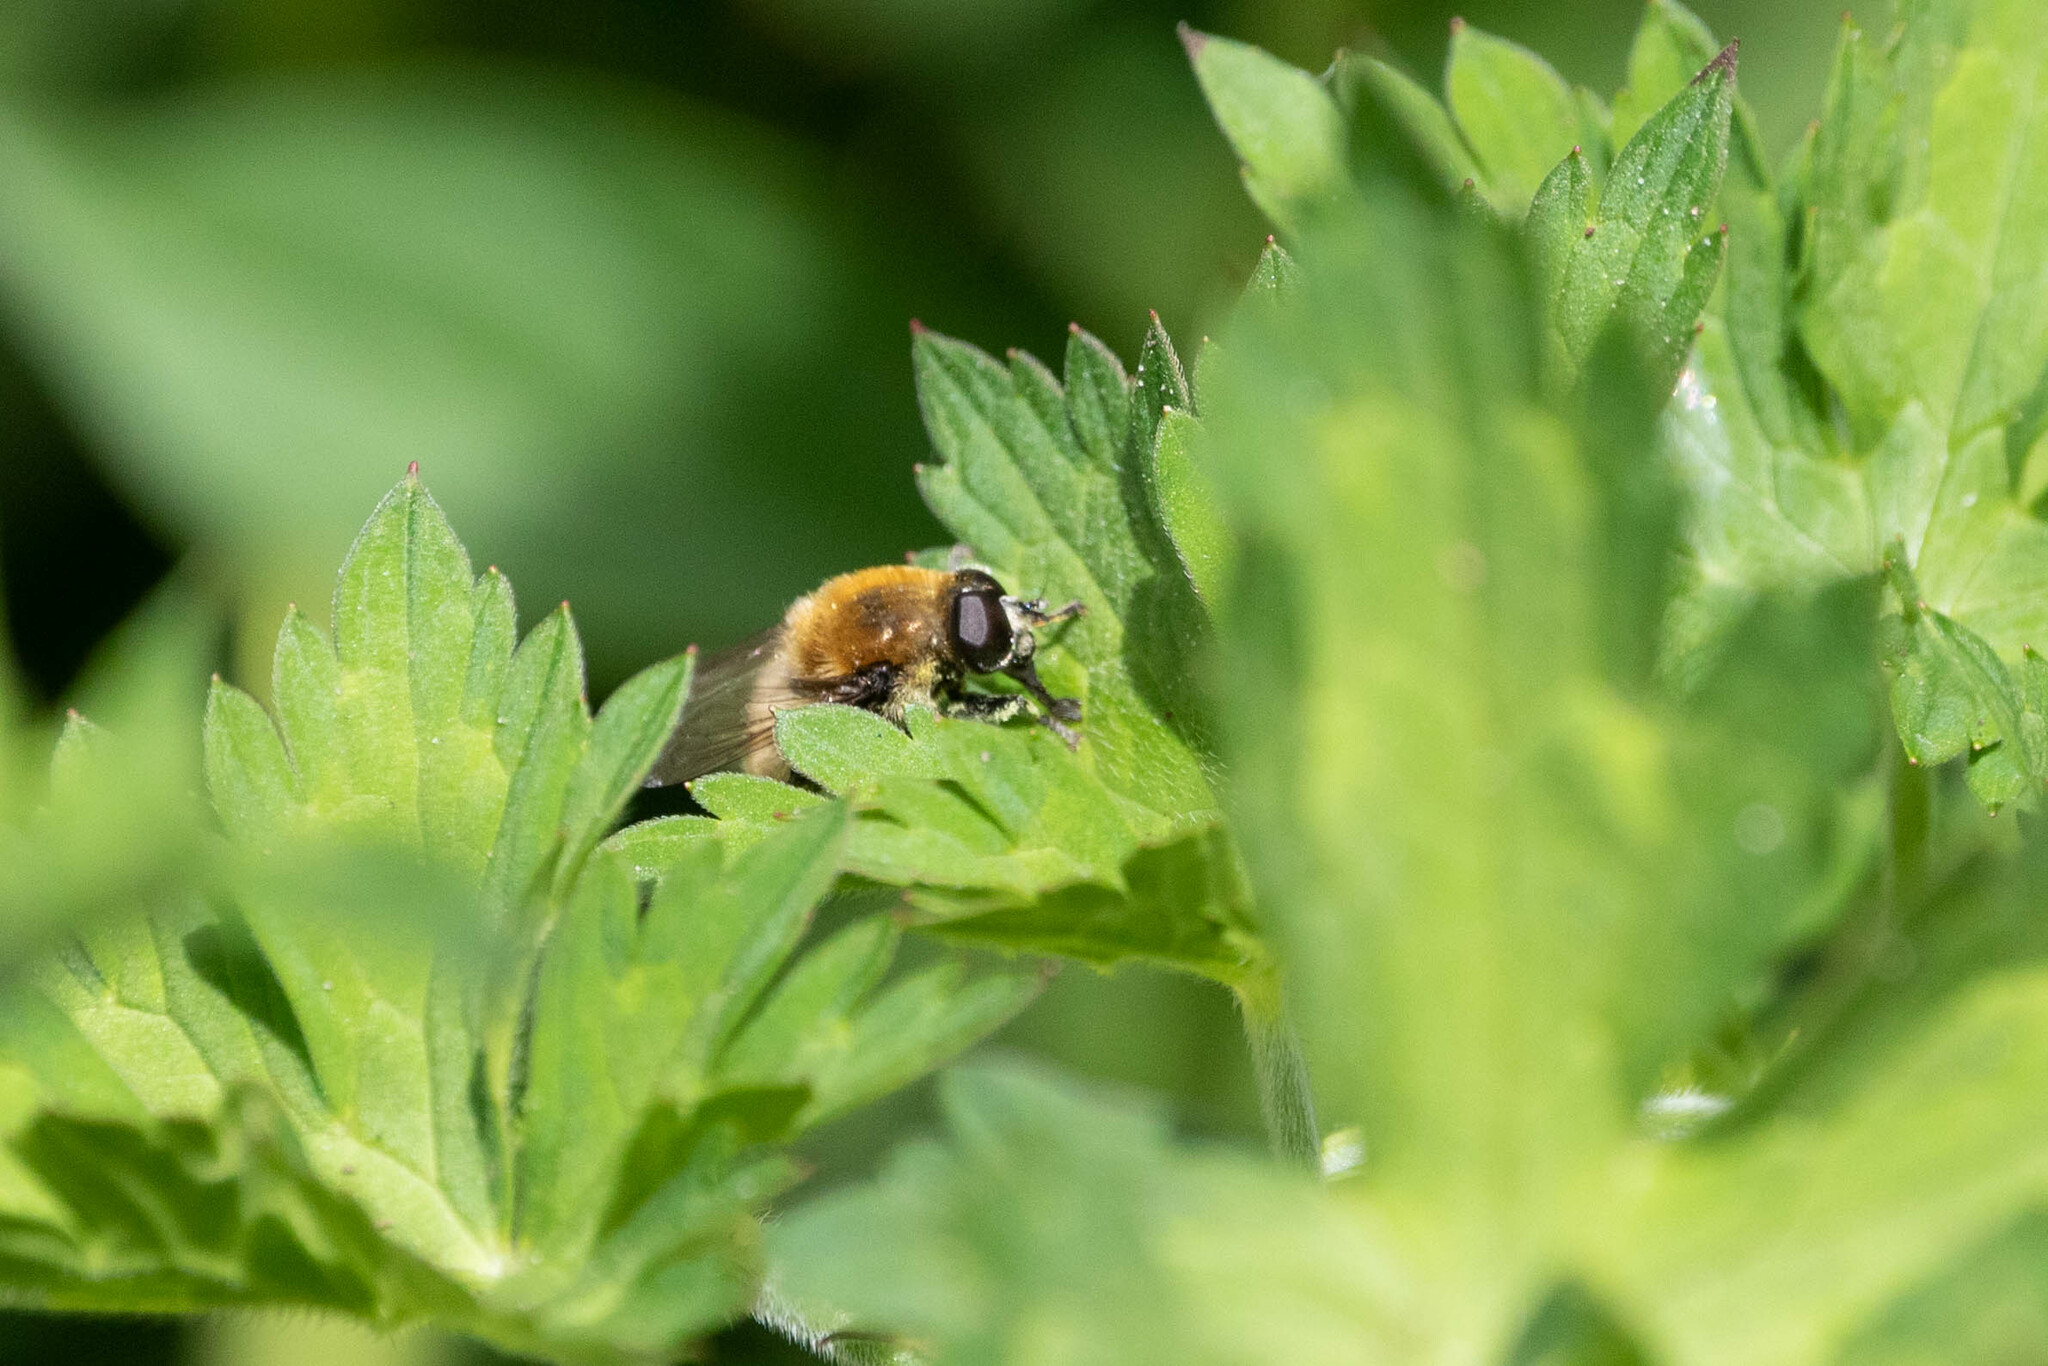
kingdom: Animalia
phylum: Arthropoda
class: Insecta
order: Diptera
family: Syrphidae
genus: Merodon
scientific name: Merodon equestris
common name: Greater bulb-fly
